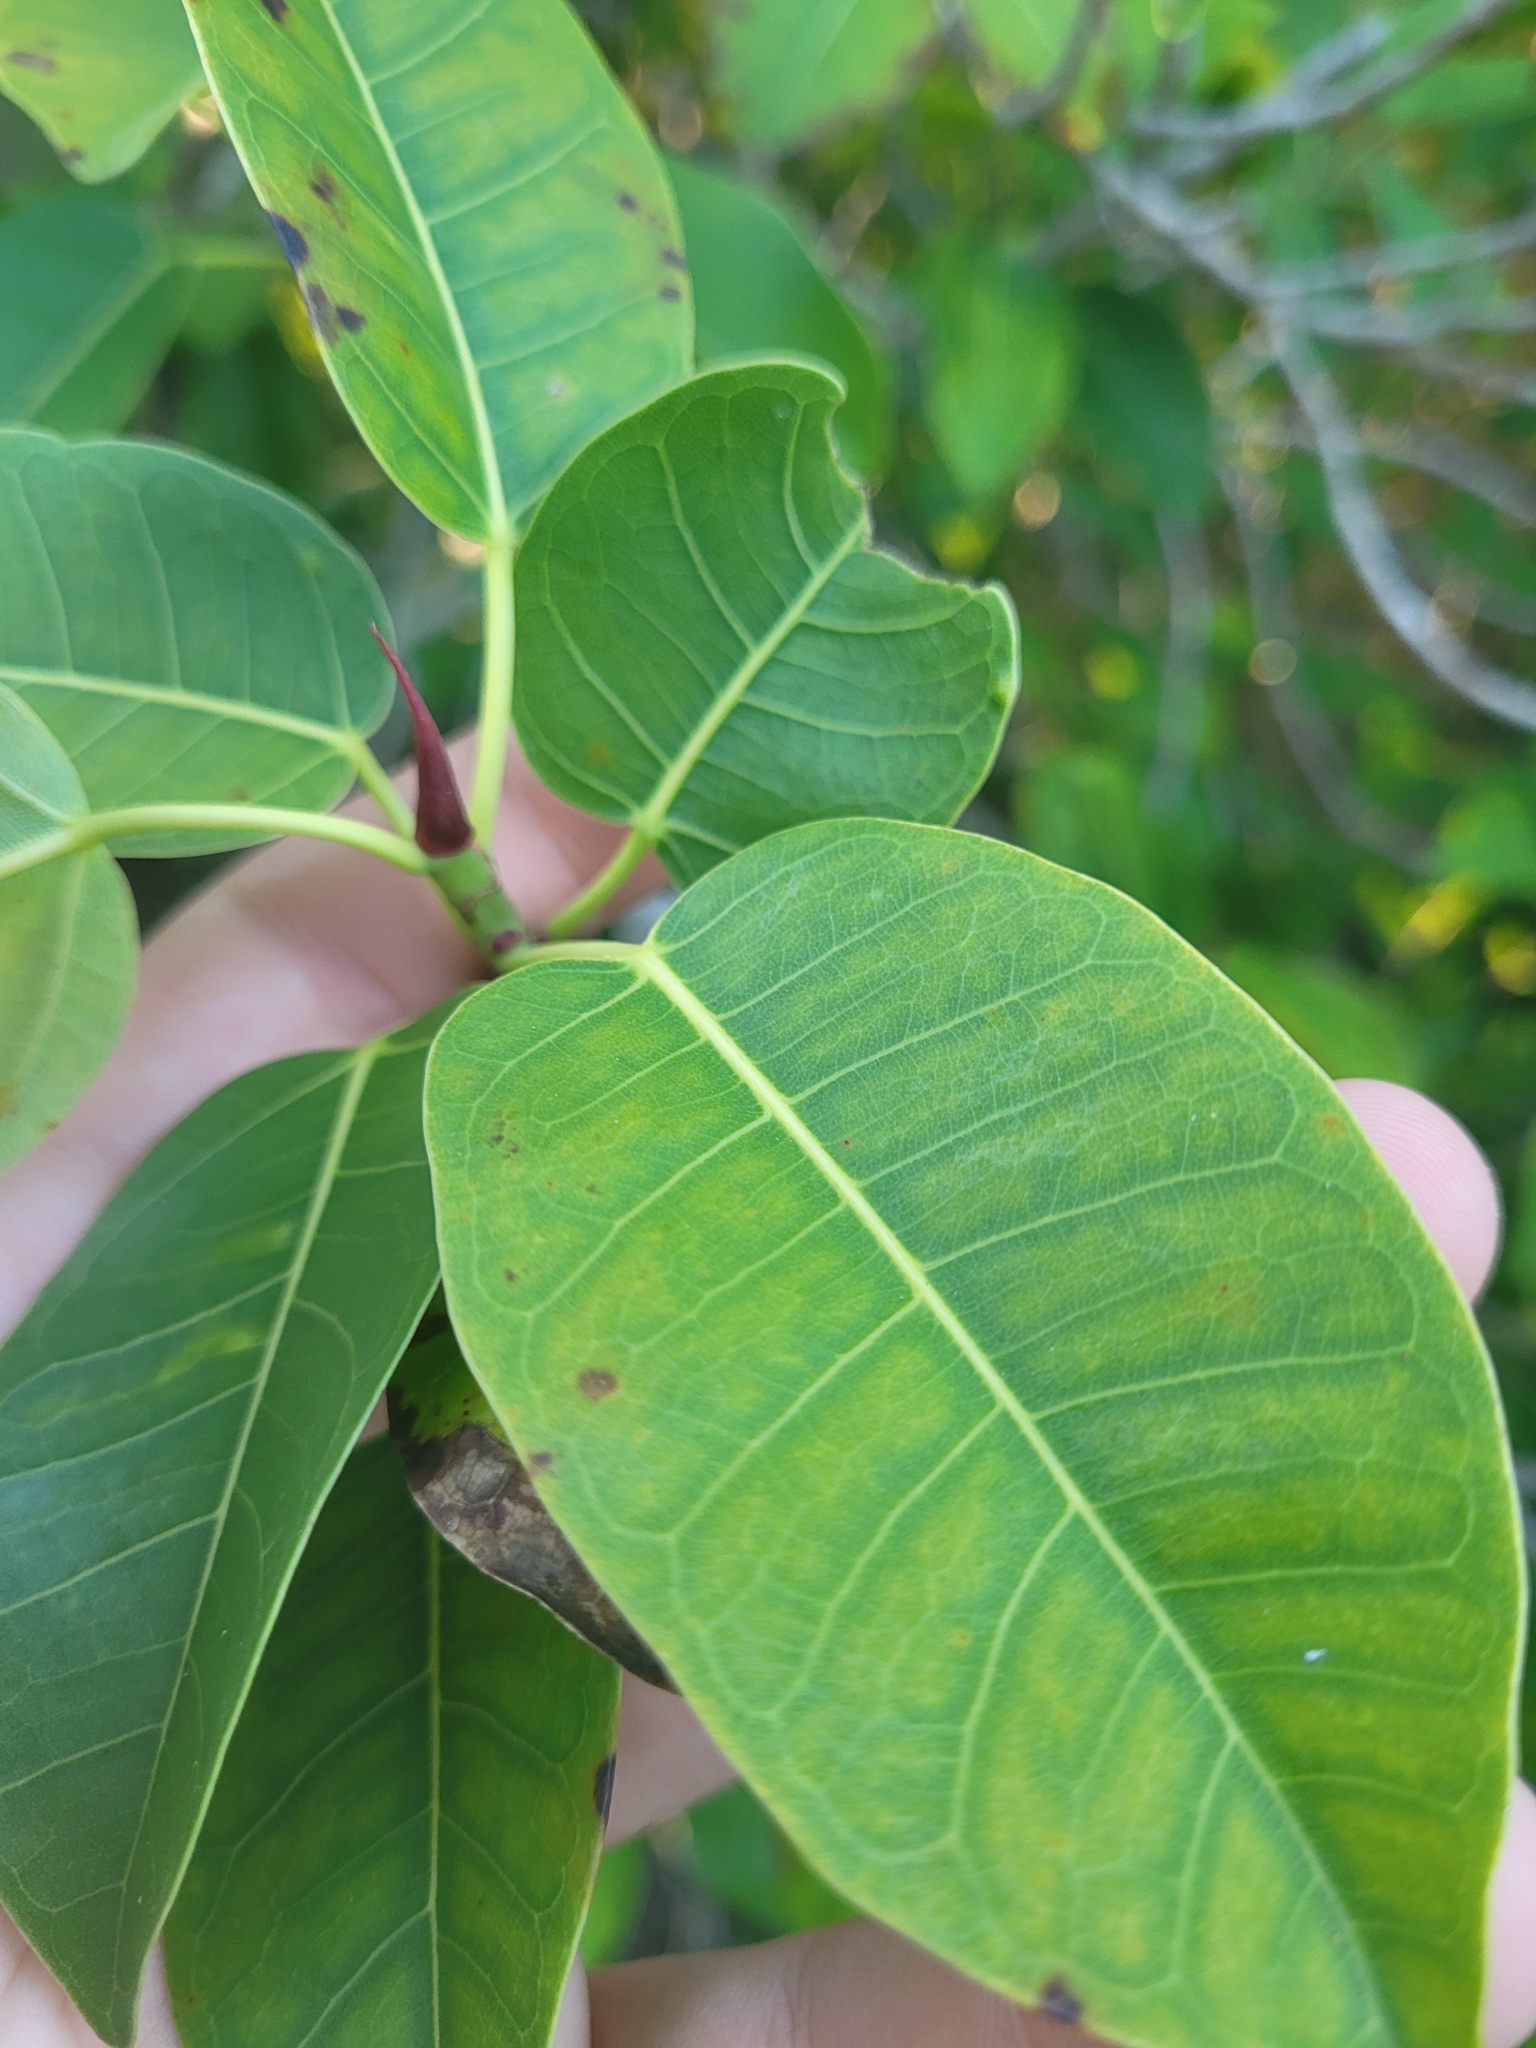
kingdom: Plantae
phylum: Tracheophyta
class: Magnoliopsida
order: Rosales
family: Moraceae
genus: Ficus
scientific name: Ficus citrifolia
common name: Strangler fig
